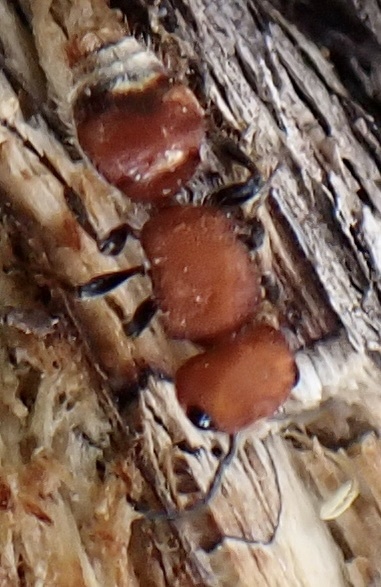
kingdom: Animalia
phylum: Arthropoda
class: Insecta
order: Hymenoptera
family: Mutillidae
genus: Pseudomethoca
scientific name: Pseudomethoca wickhami
